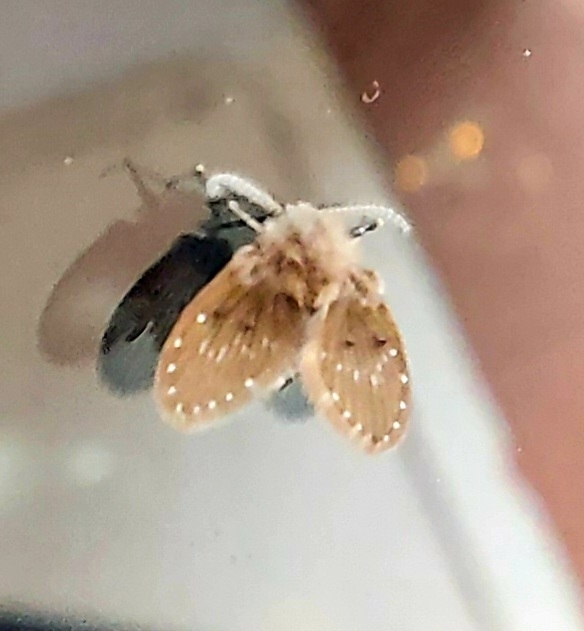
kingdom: Animalia
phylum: Arthropoda
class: Insecta
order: Diptera
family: Psychodidae
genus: Clogmia
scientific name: Clogmia albipunctatus
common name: White-spotted moth fly
